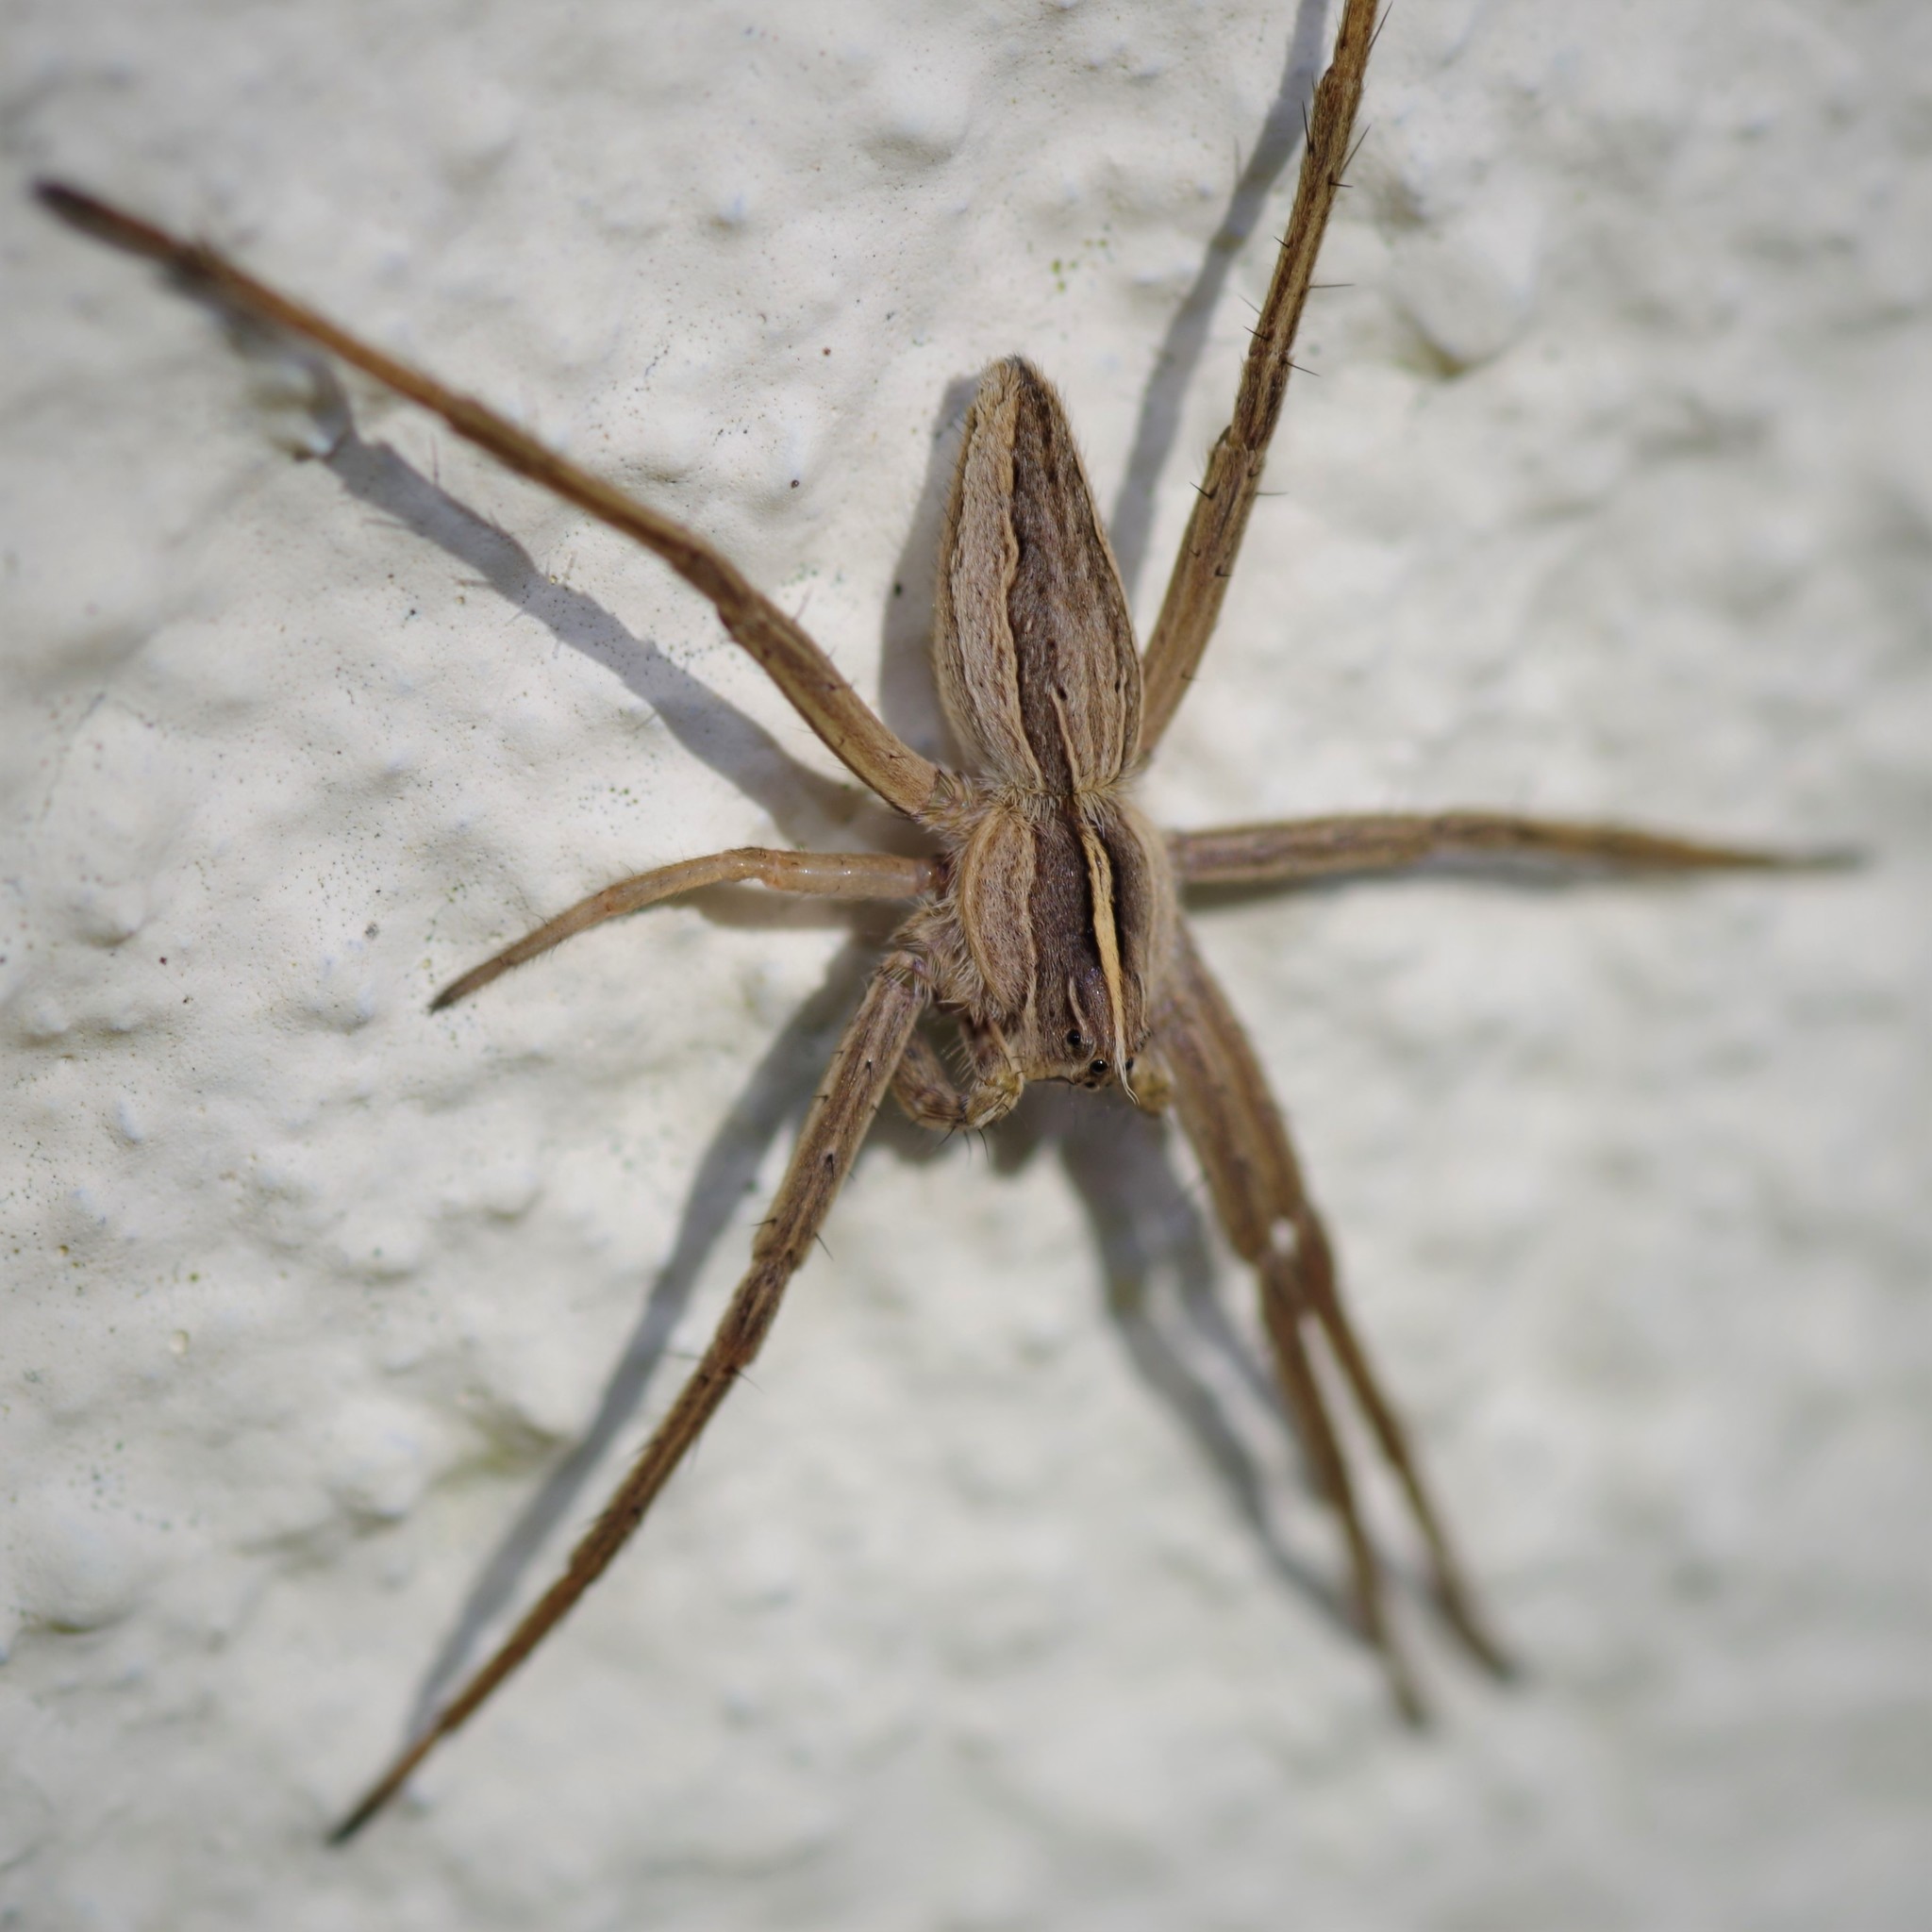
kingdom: Animalia
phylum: Arthropoda
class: Arachnida
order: Araneae
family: Pisauridae
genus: Pisaura
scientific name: Pisaura mirabilis
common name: Tent spider
